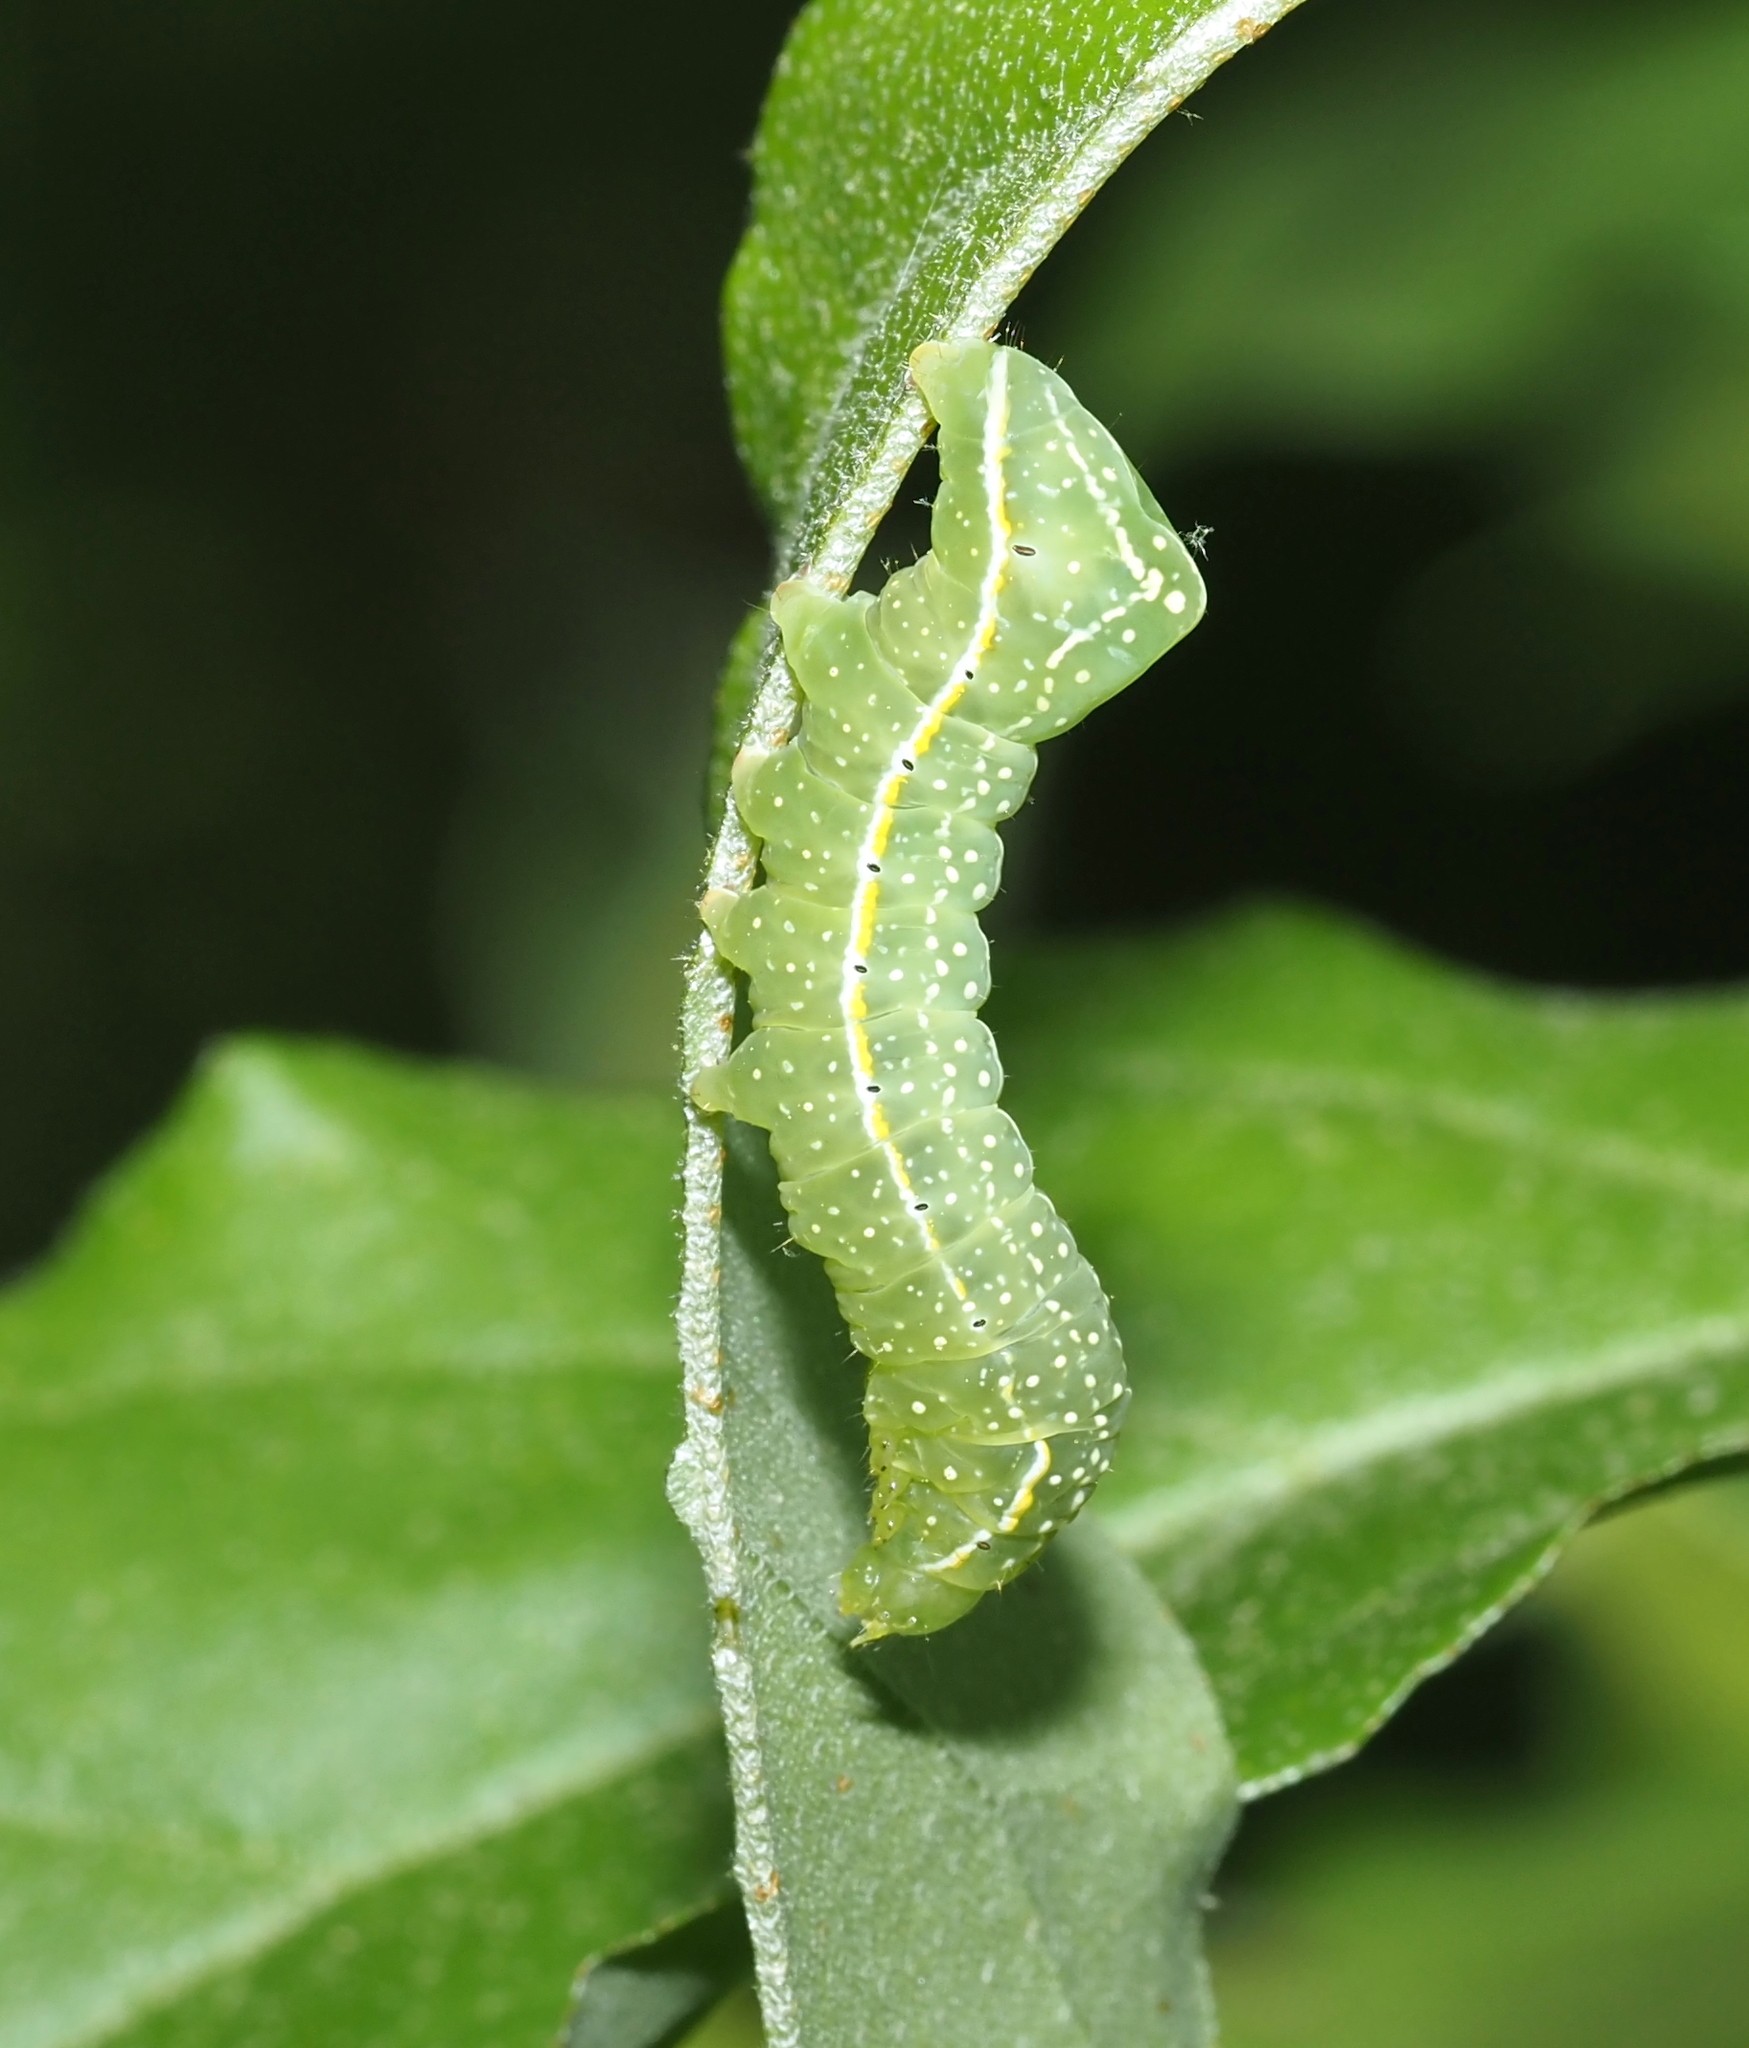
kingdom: Animalia
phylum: Arthropoda
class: Insecta
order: Lepidoptera
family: Noctuidae
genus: Amphipyra
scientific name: Amphipyra pyramidoides
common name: American copper underwing
